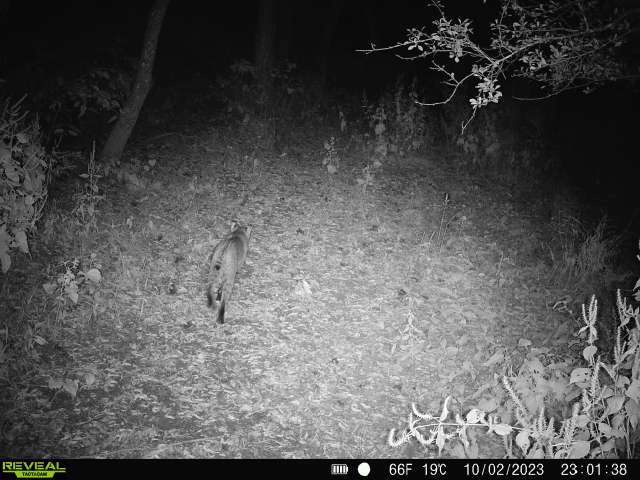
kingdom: Animalia
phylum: Chordata
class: Mammalia
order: Carnivora
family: Felidae
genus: Lynx
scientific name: Lynx rufus
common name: Bobcat
